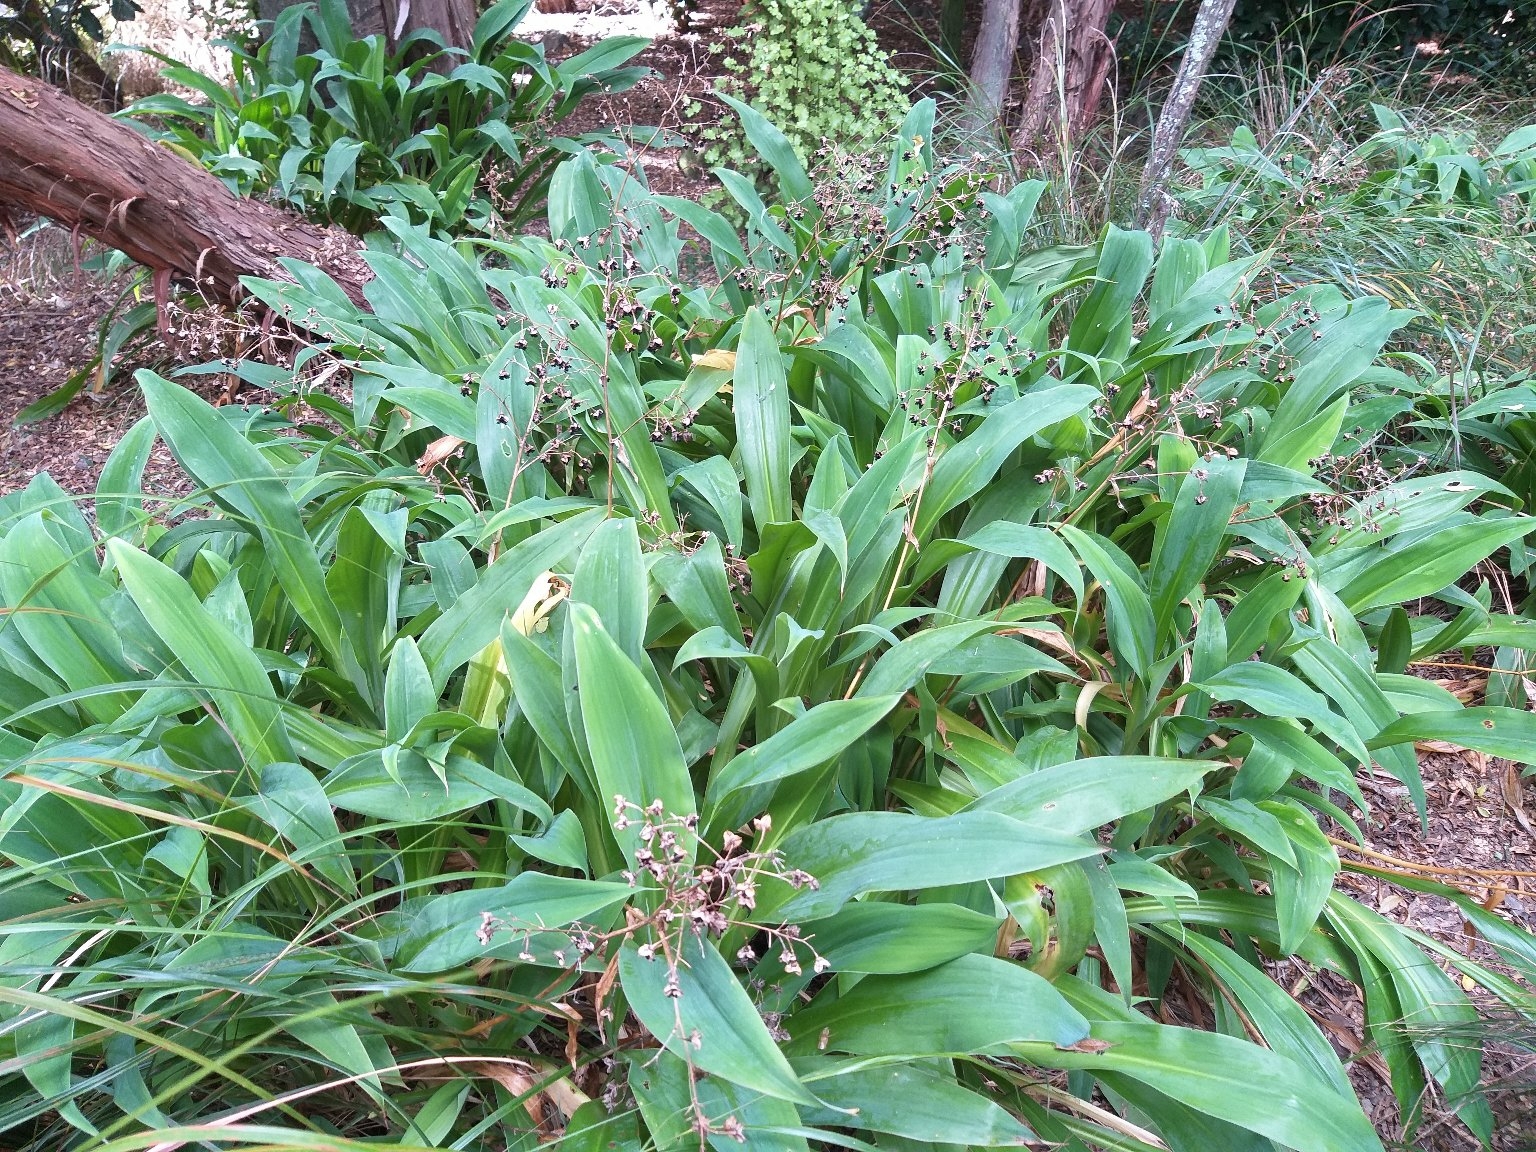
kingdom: Plantae
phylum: Tracheophyta
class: Liliopsida
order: Asparagales
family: Asparagaceae
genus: Arthropodium
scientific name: Arthropodium cirratum
